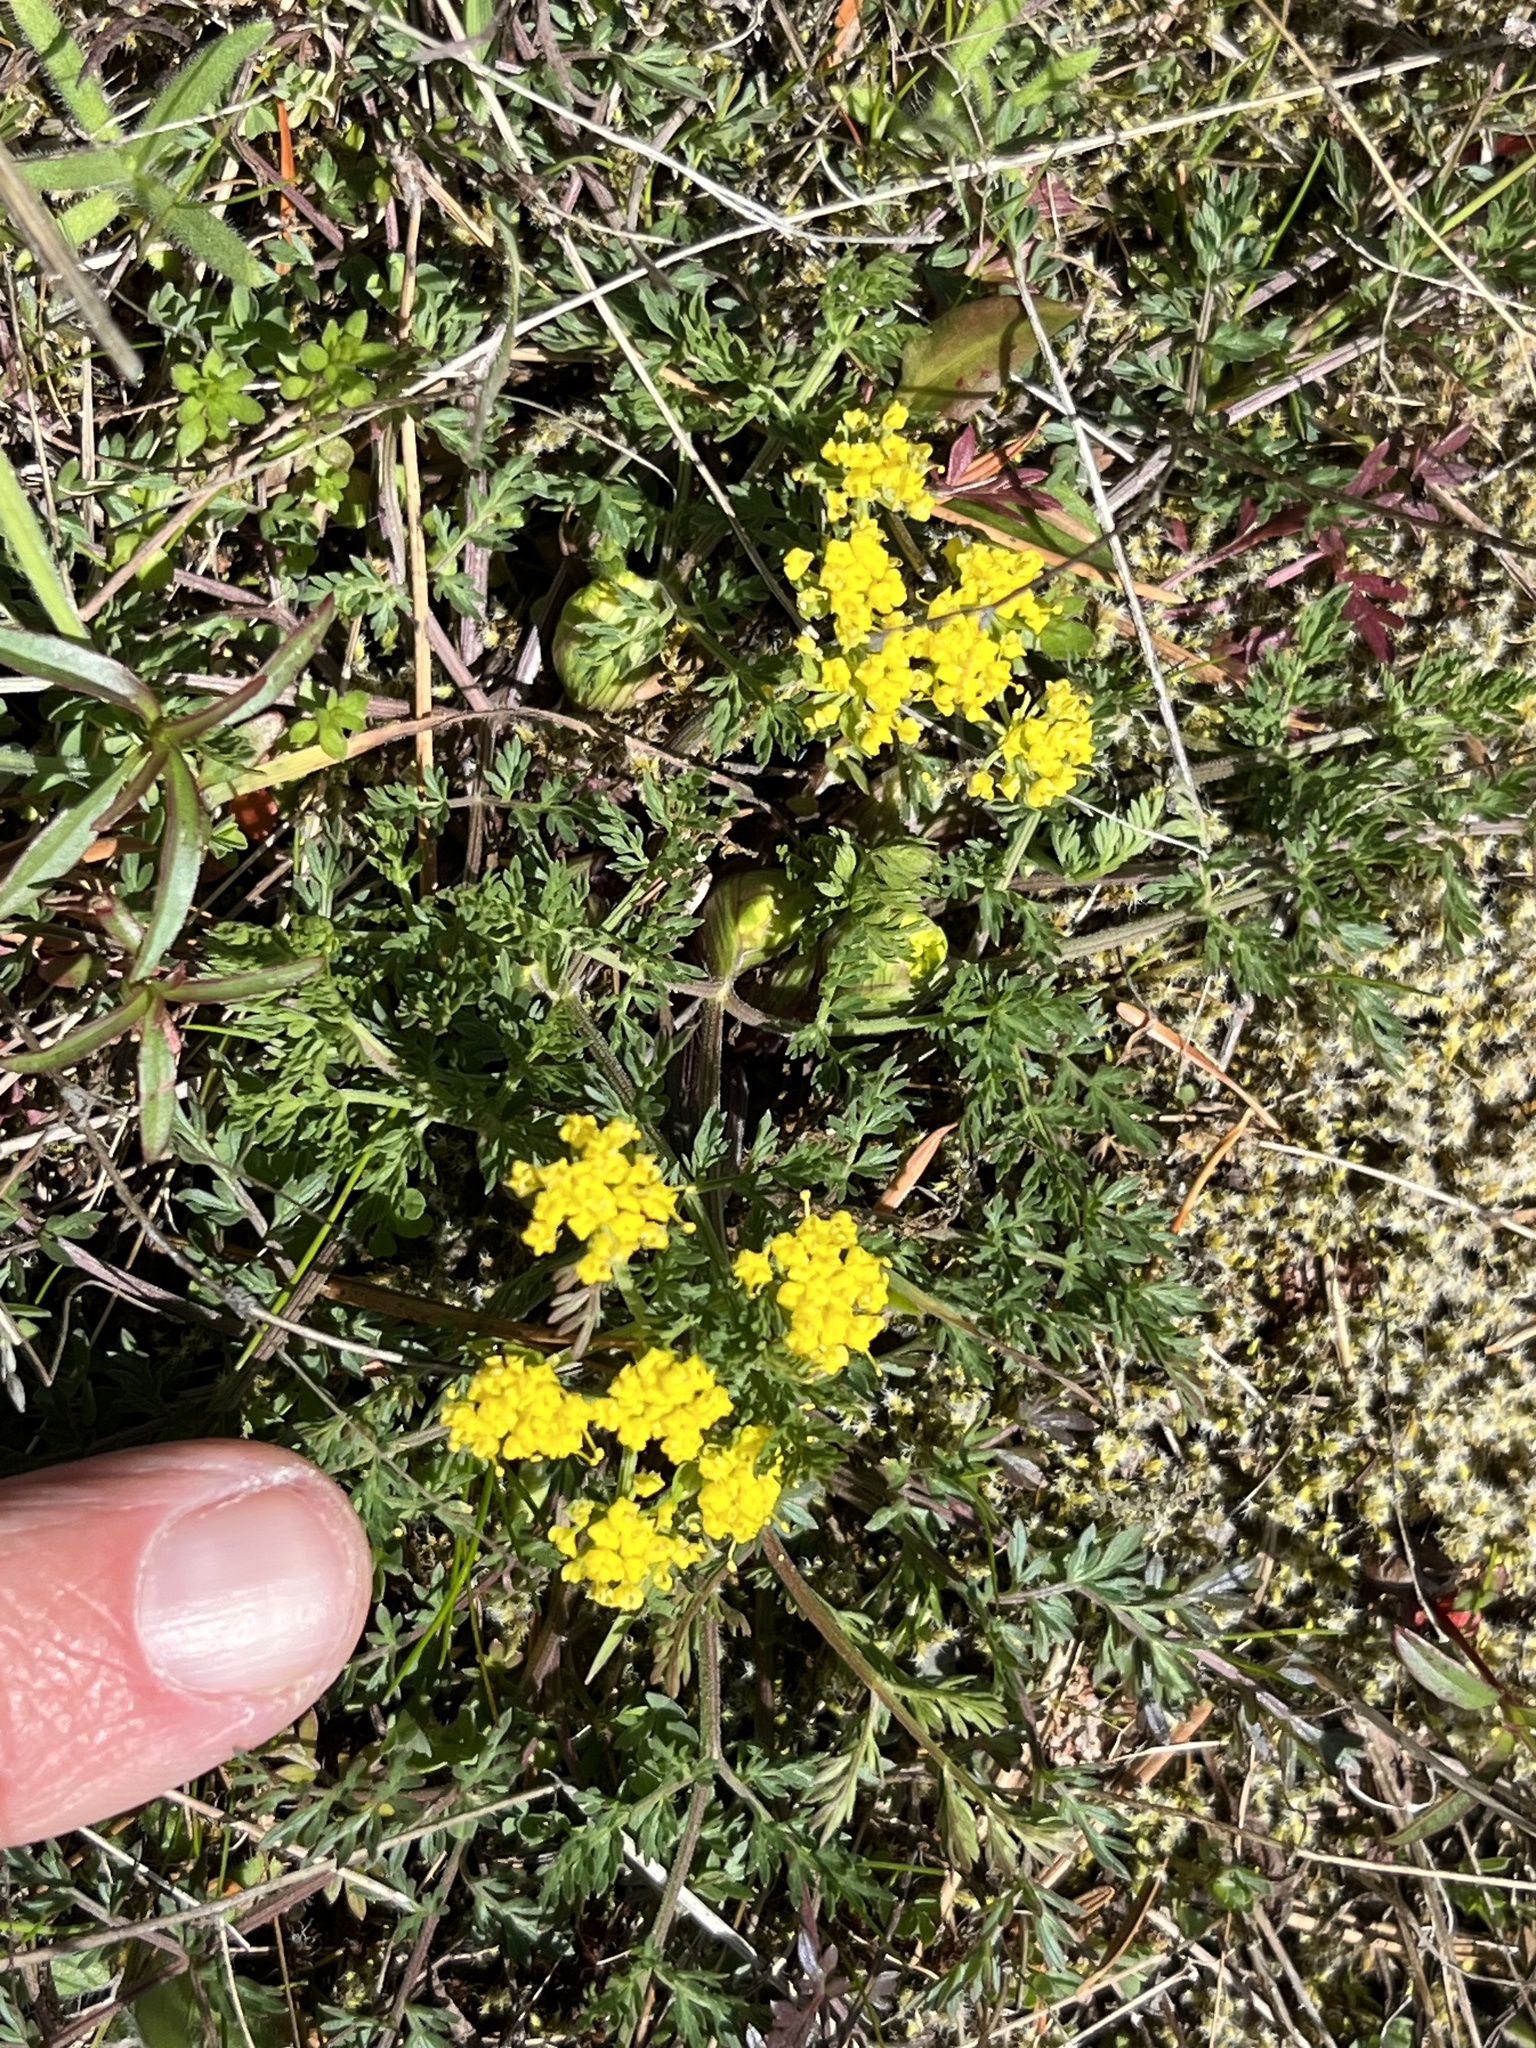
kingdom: Plantae
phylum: Tracheophyta
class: Magnoliopsida
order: Apiales
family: Apiaceae
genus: Lomatium
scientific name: Lomatium utriculatum
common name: Fine-leaf desert-parsley
